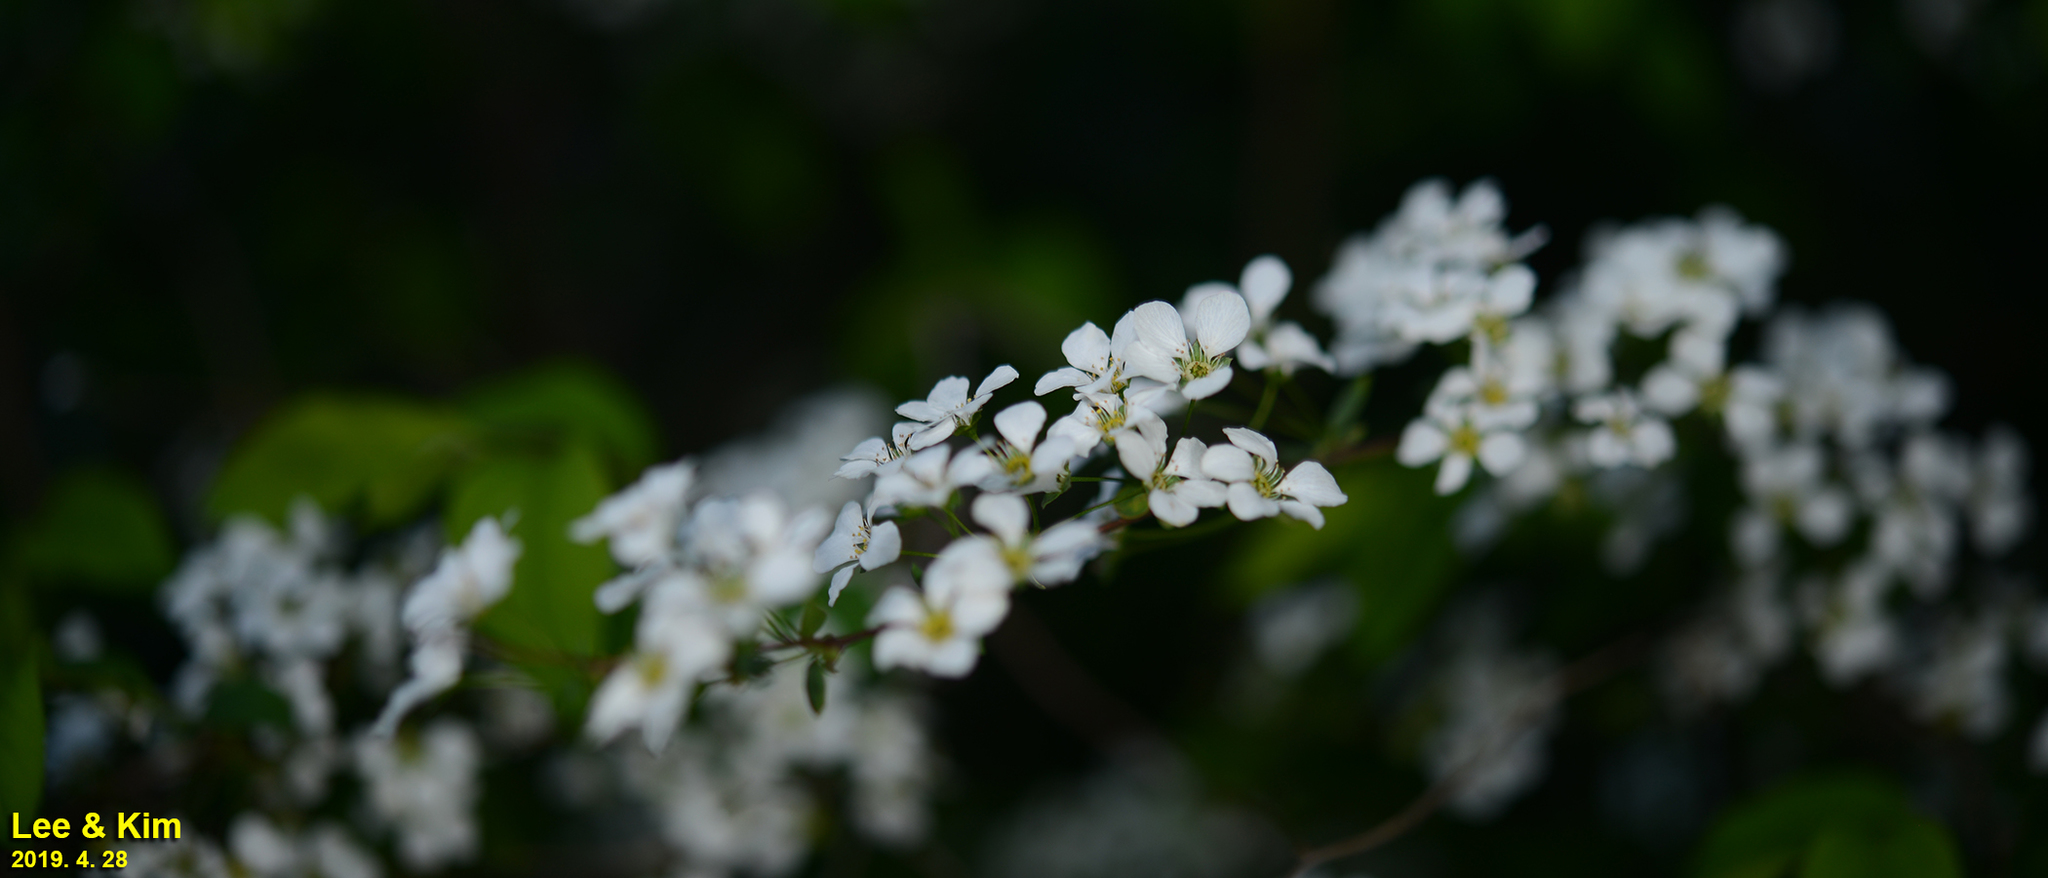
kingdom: Plantae
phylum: Tracheophyta
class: Magnoliopsida
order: Rosales
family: Rosaceae
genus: Spiraea
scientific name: Spiraea prunifolia
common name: Bridal-wreath spiraea
